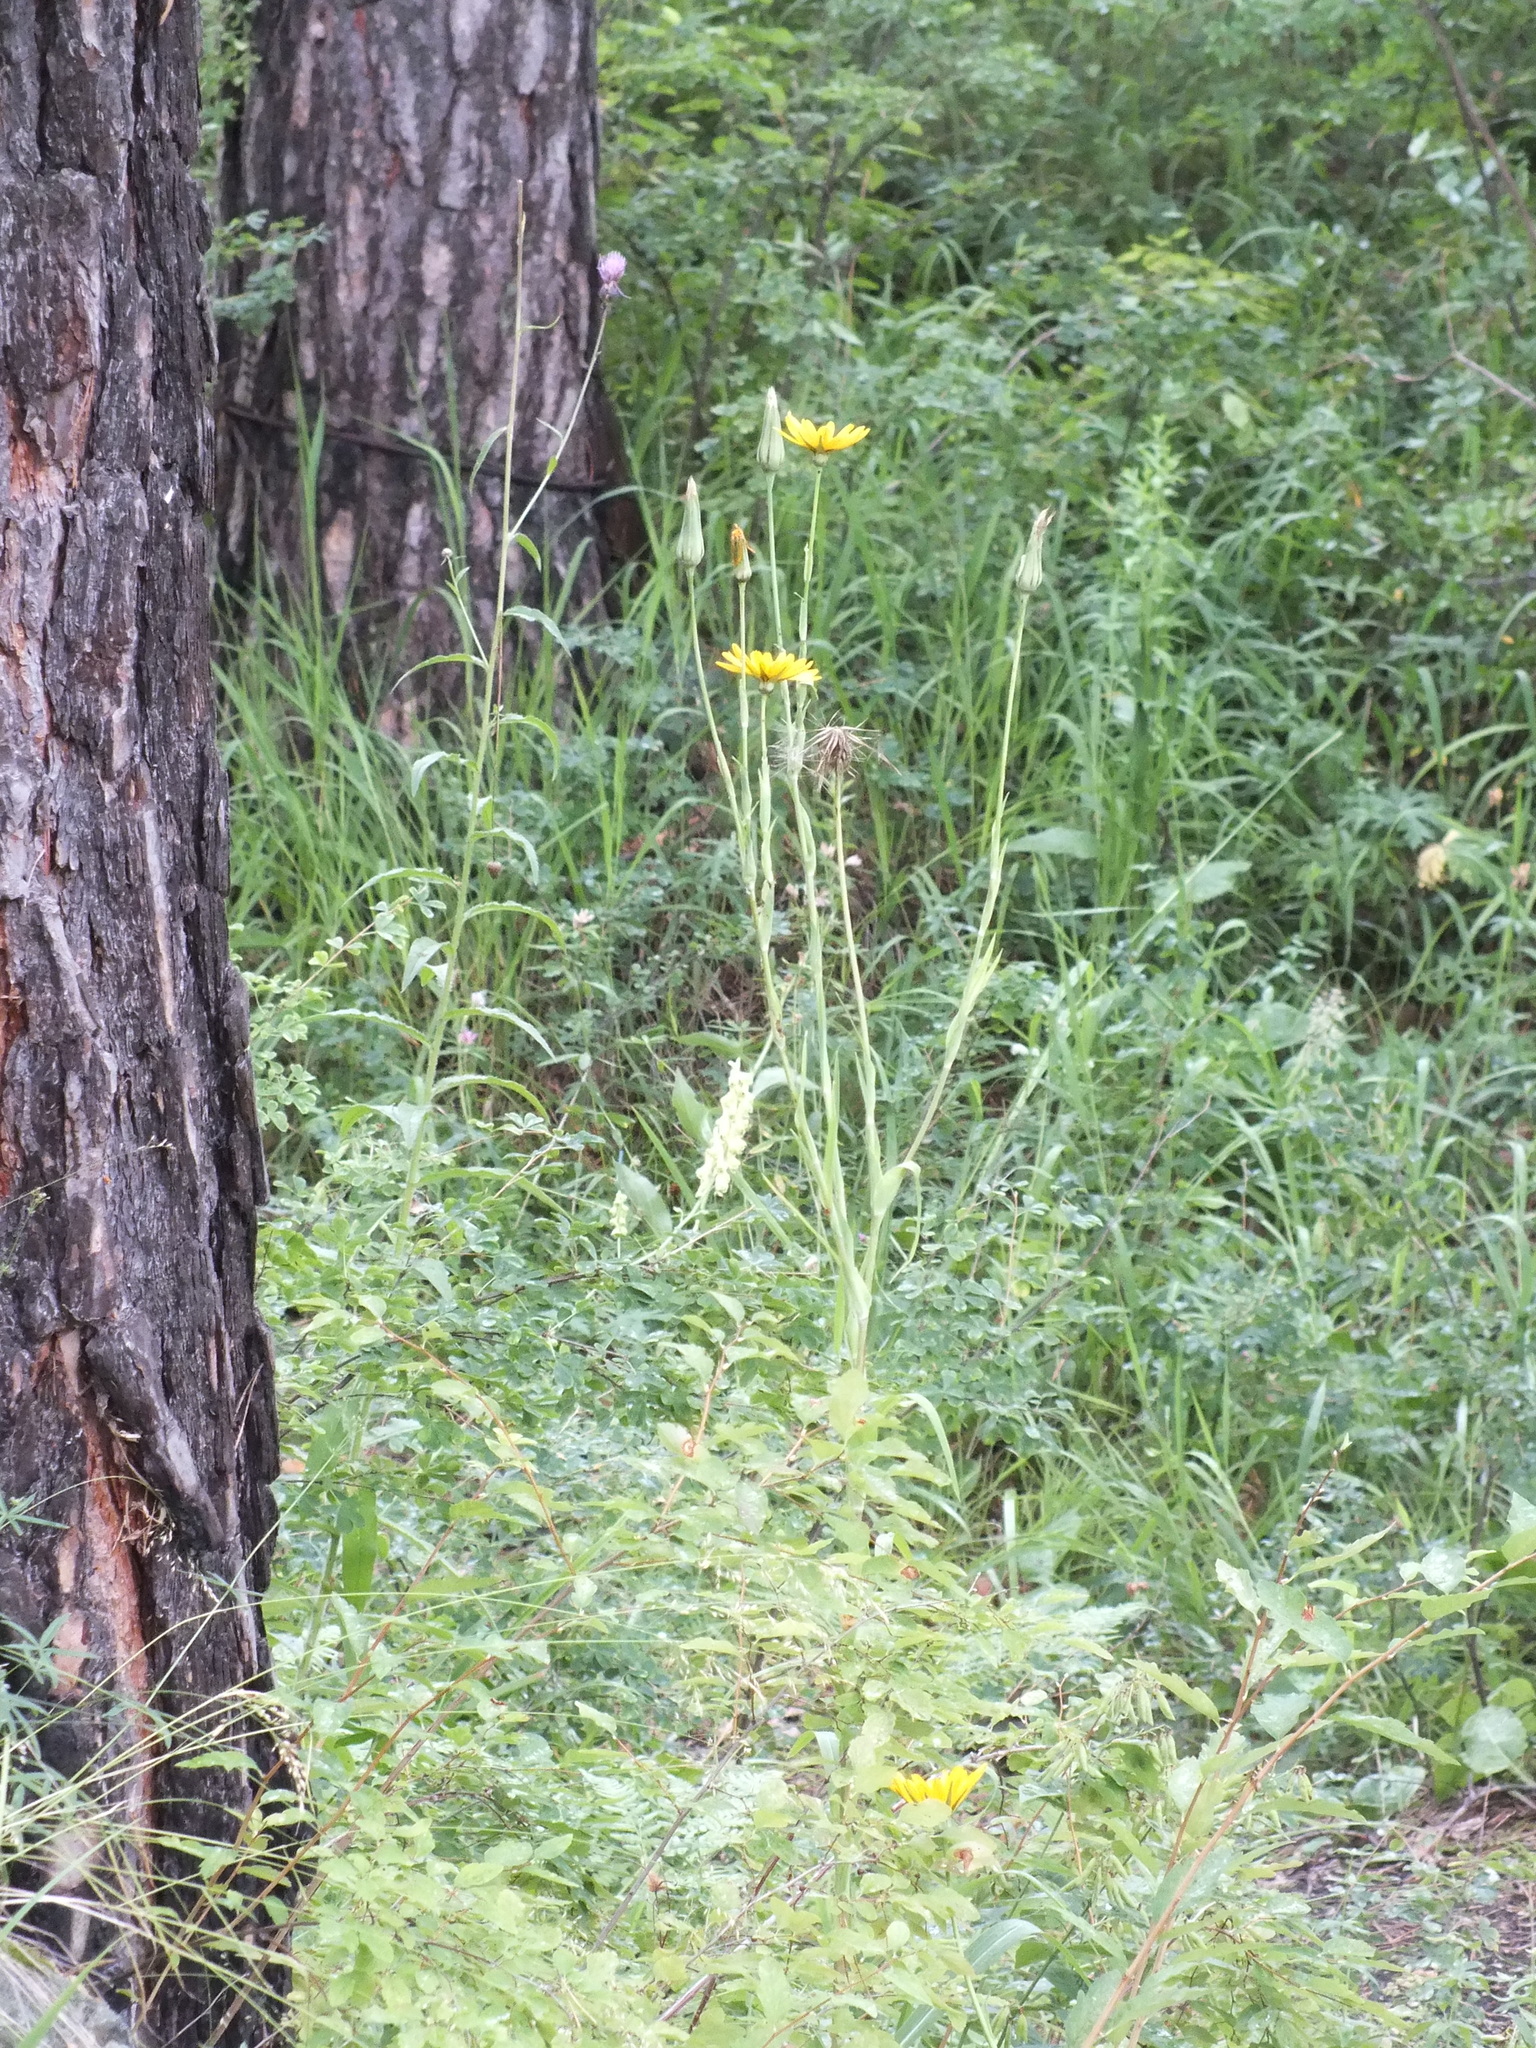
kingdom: Plantae
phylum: Tracheophyta
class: Magnoliopsida
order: Asterales
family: Asteraceae
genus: Tragopogon
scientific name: Tragopogon orientalis
